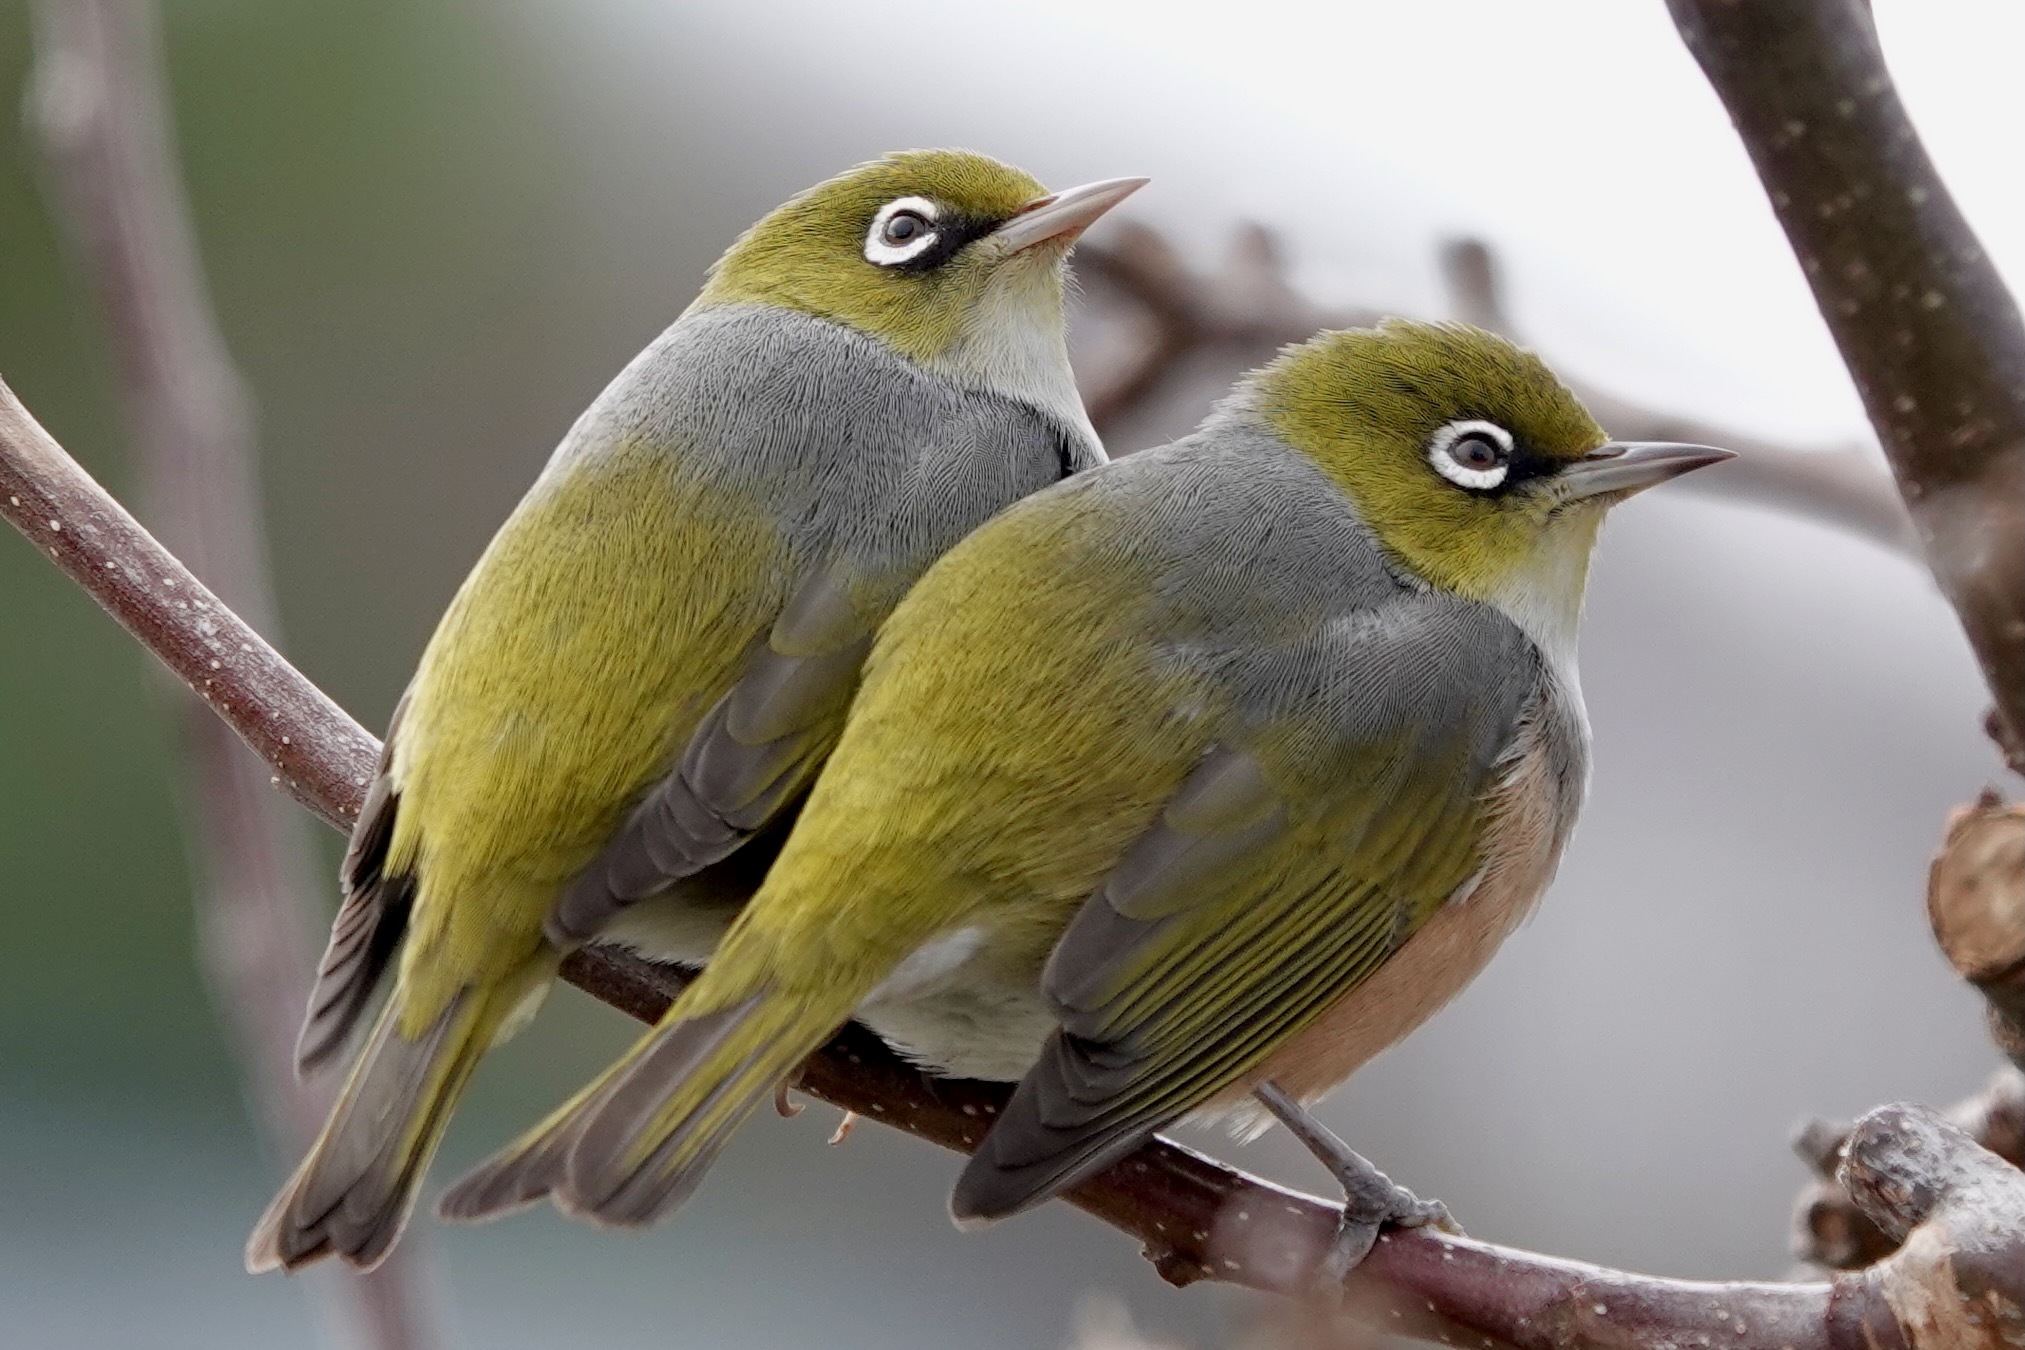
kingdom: Animalia
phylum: Chordata
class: Aves
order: Passeriformes
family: Zosteropidae
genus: Zosterops
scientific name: Zosterops lateralis
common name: Silvereye
